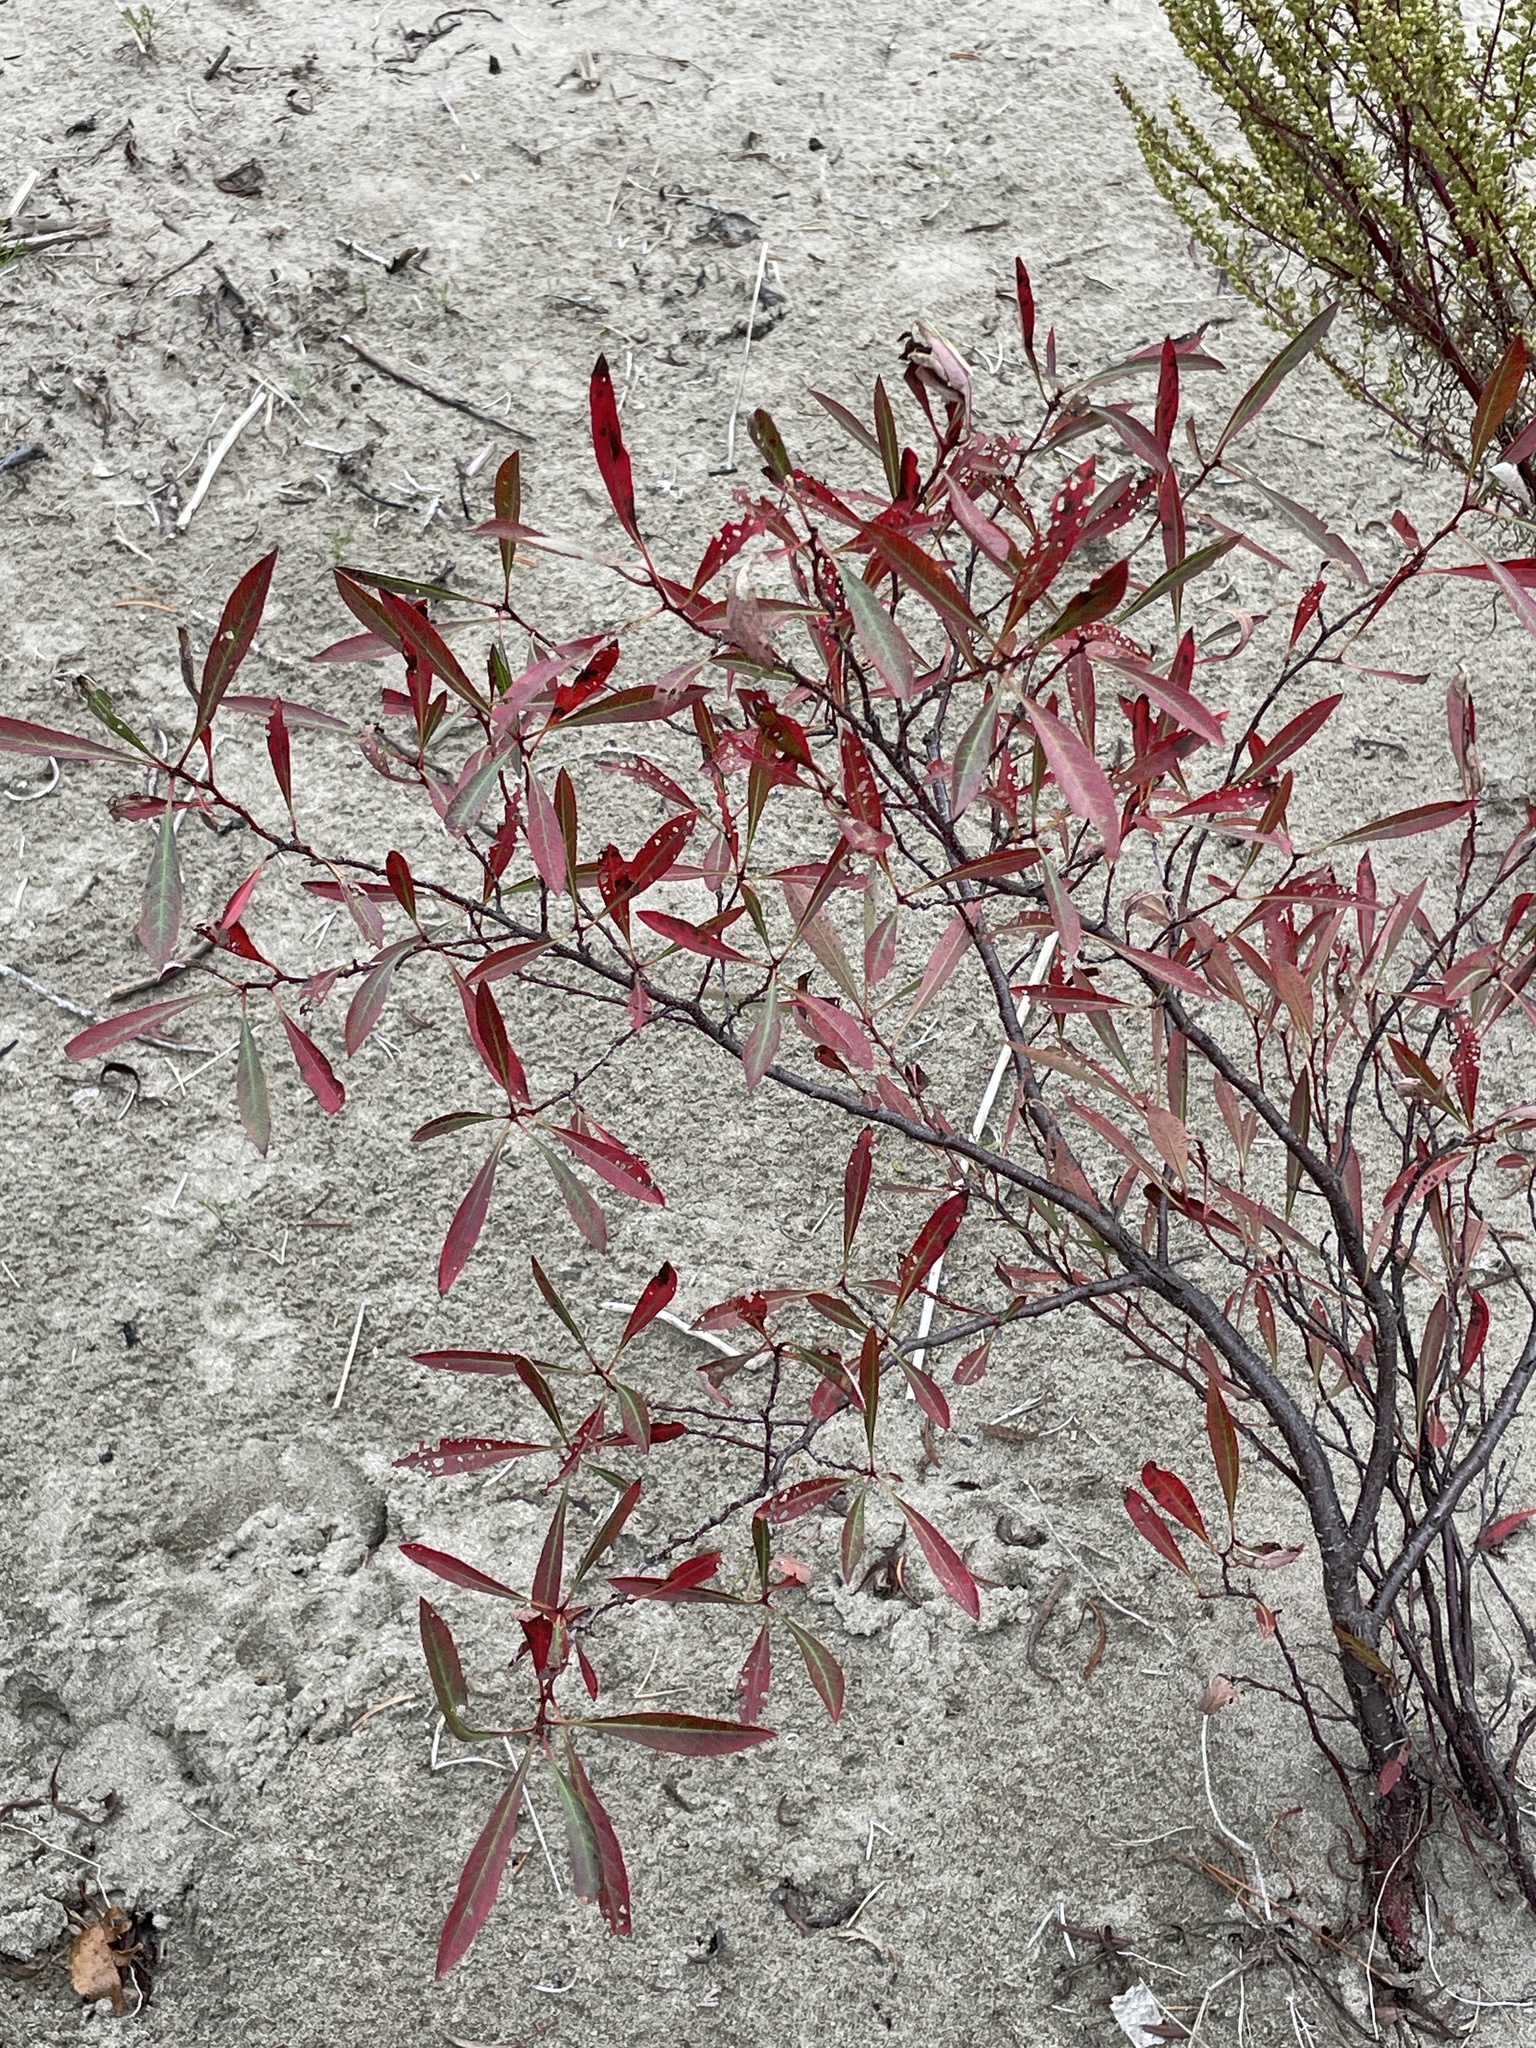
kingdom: Plantae
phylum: Tracheophyta
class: Magnoliopsida
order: Rosales
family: Rosaceae
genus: Prunus
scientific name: Prunus pumila
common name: Dwarf cherry
